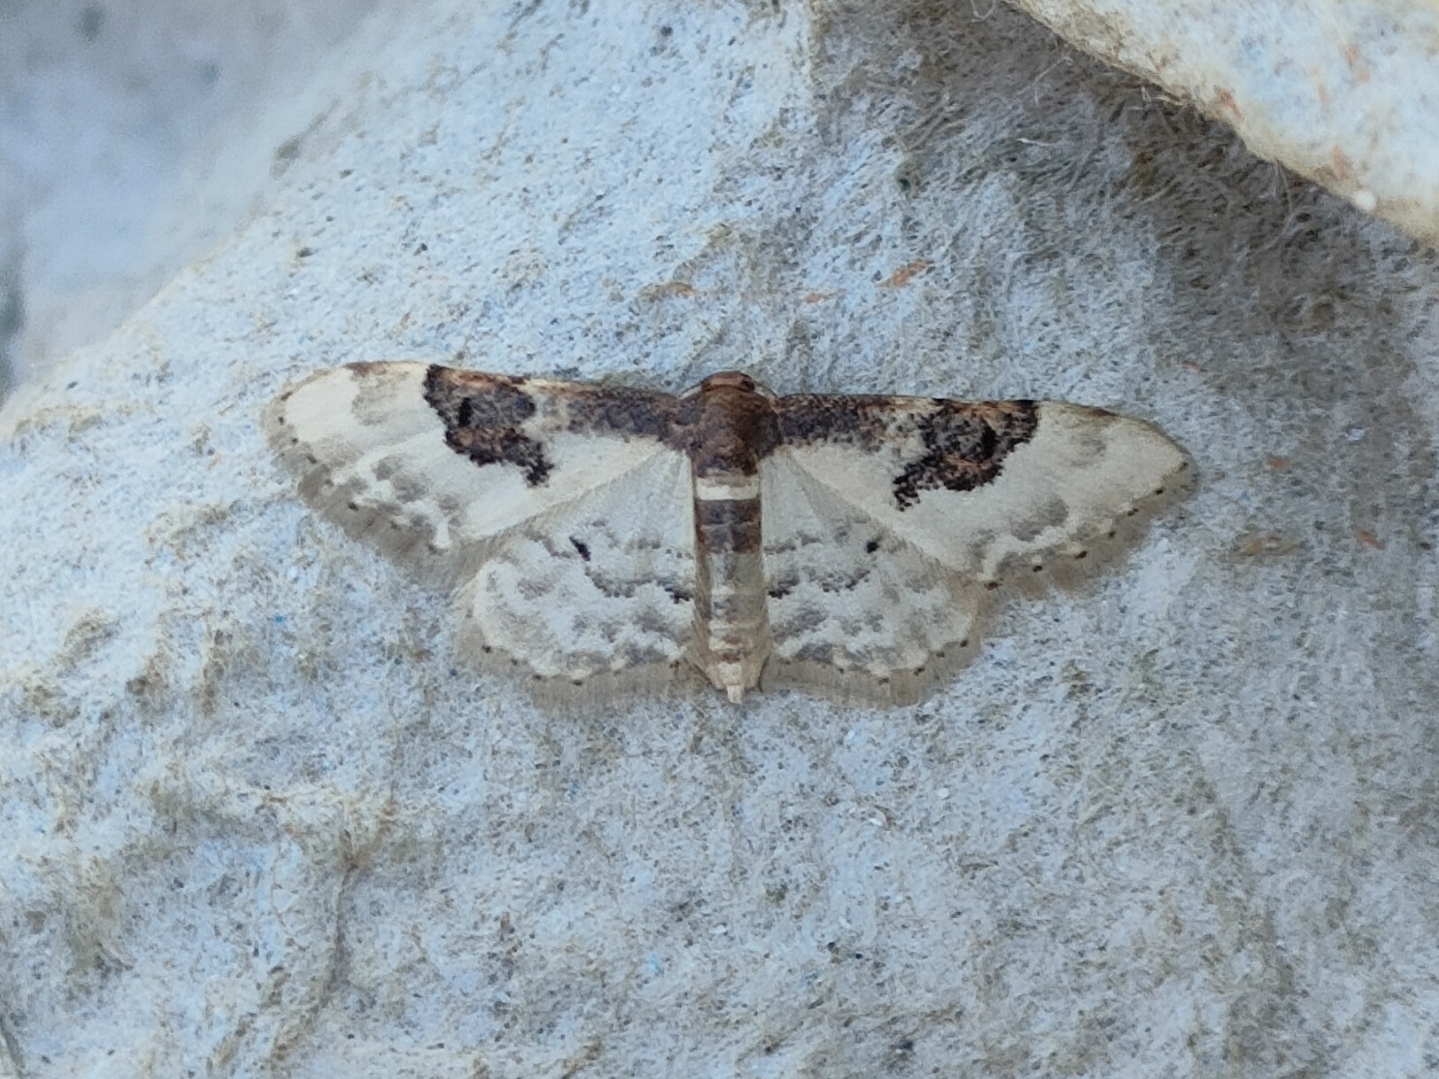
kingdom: Animalia
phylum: Arthropoda
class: Insecta
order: Lepidoptera
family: Geometridae
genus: Idaea
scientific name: Idaea rusticata
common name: Least carpet
